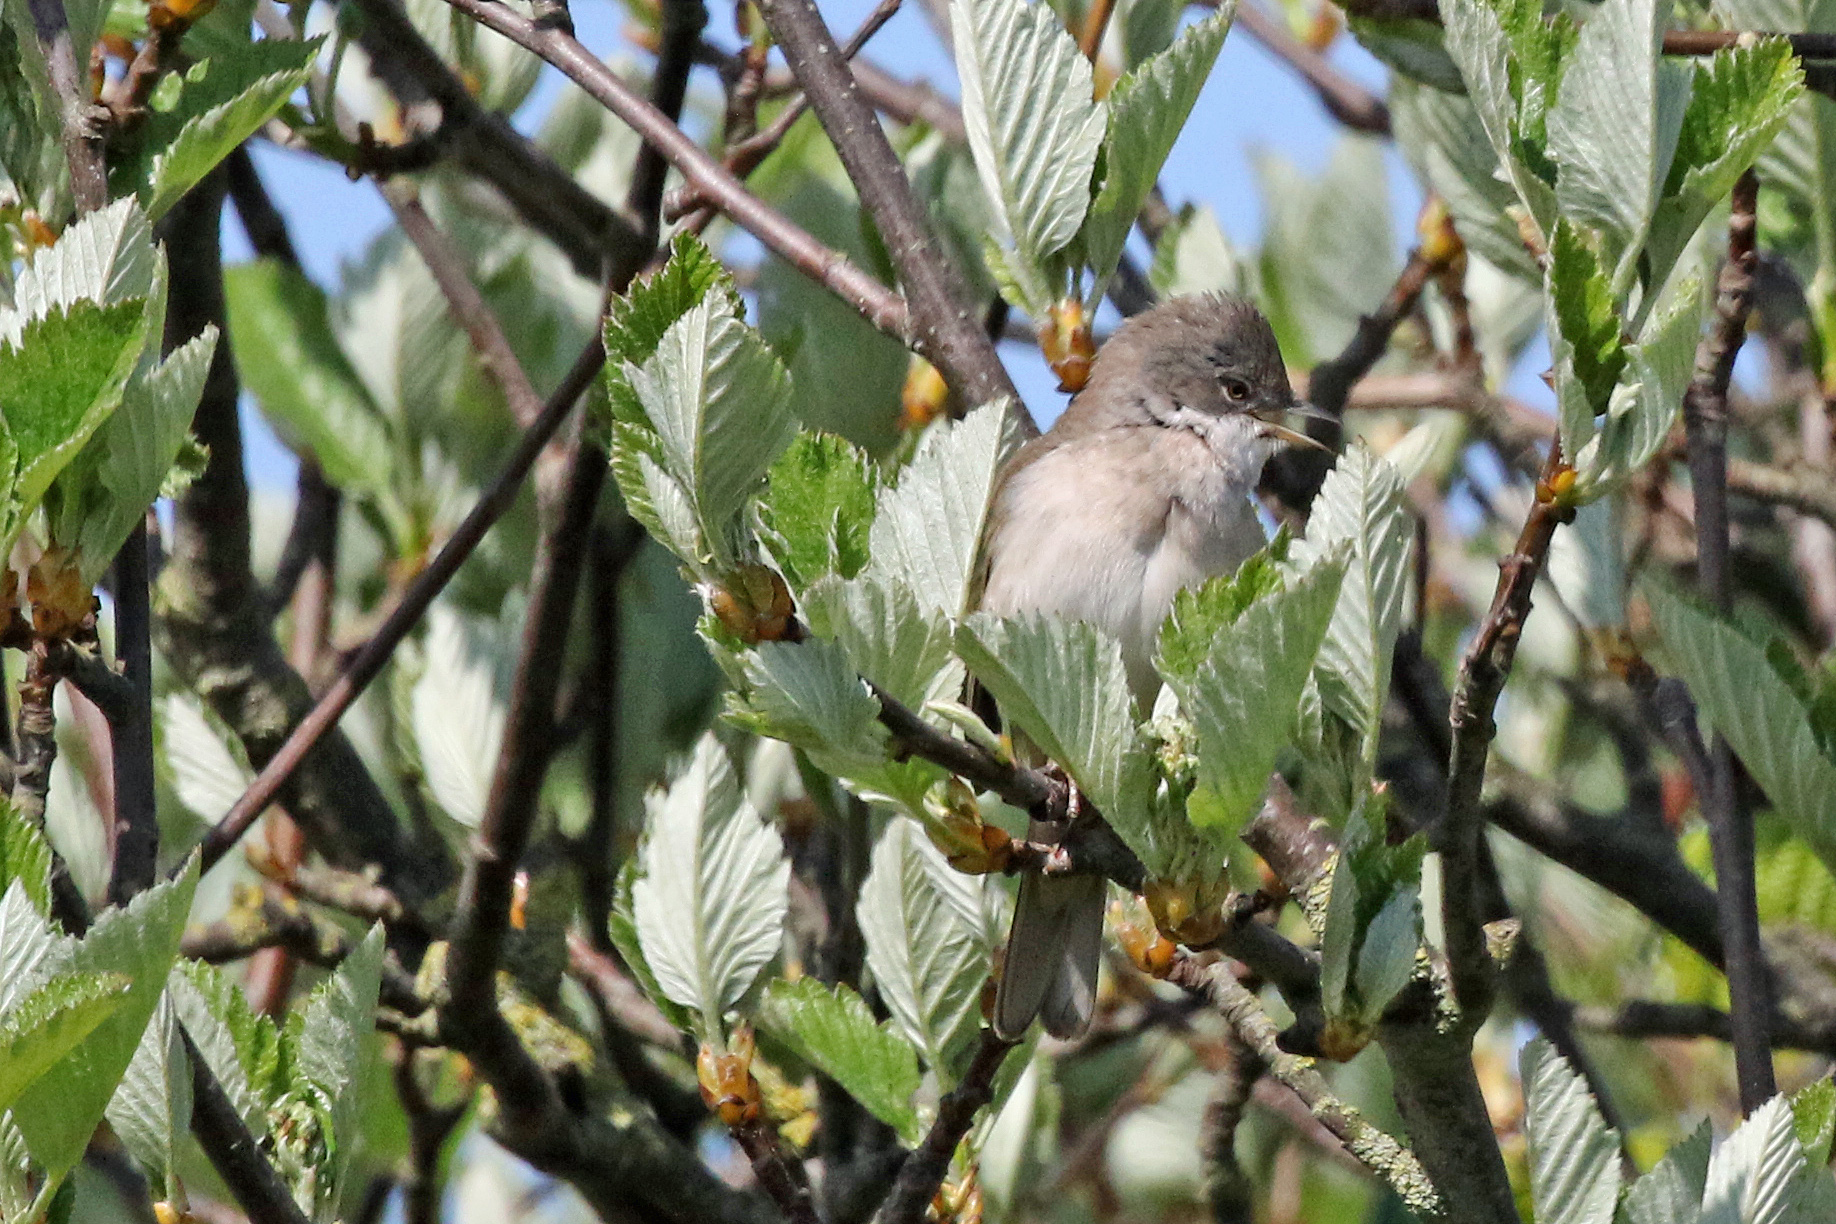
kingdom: Animalia
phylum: Chordata
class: Aves
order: Passeriformes
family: Sylviidae
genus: Sylvia
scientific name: Sylvia communis
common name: Common whitethroat
